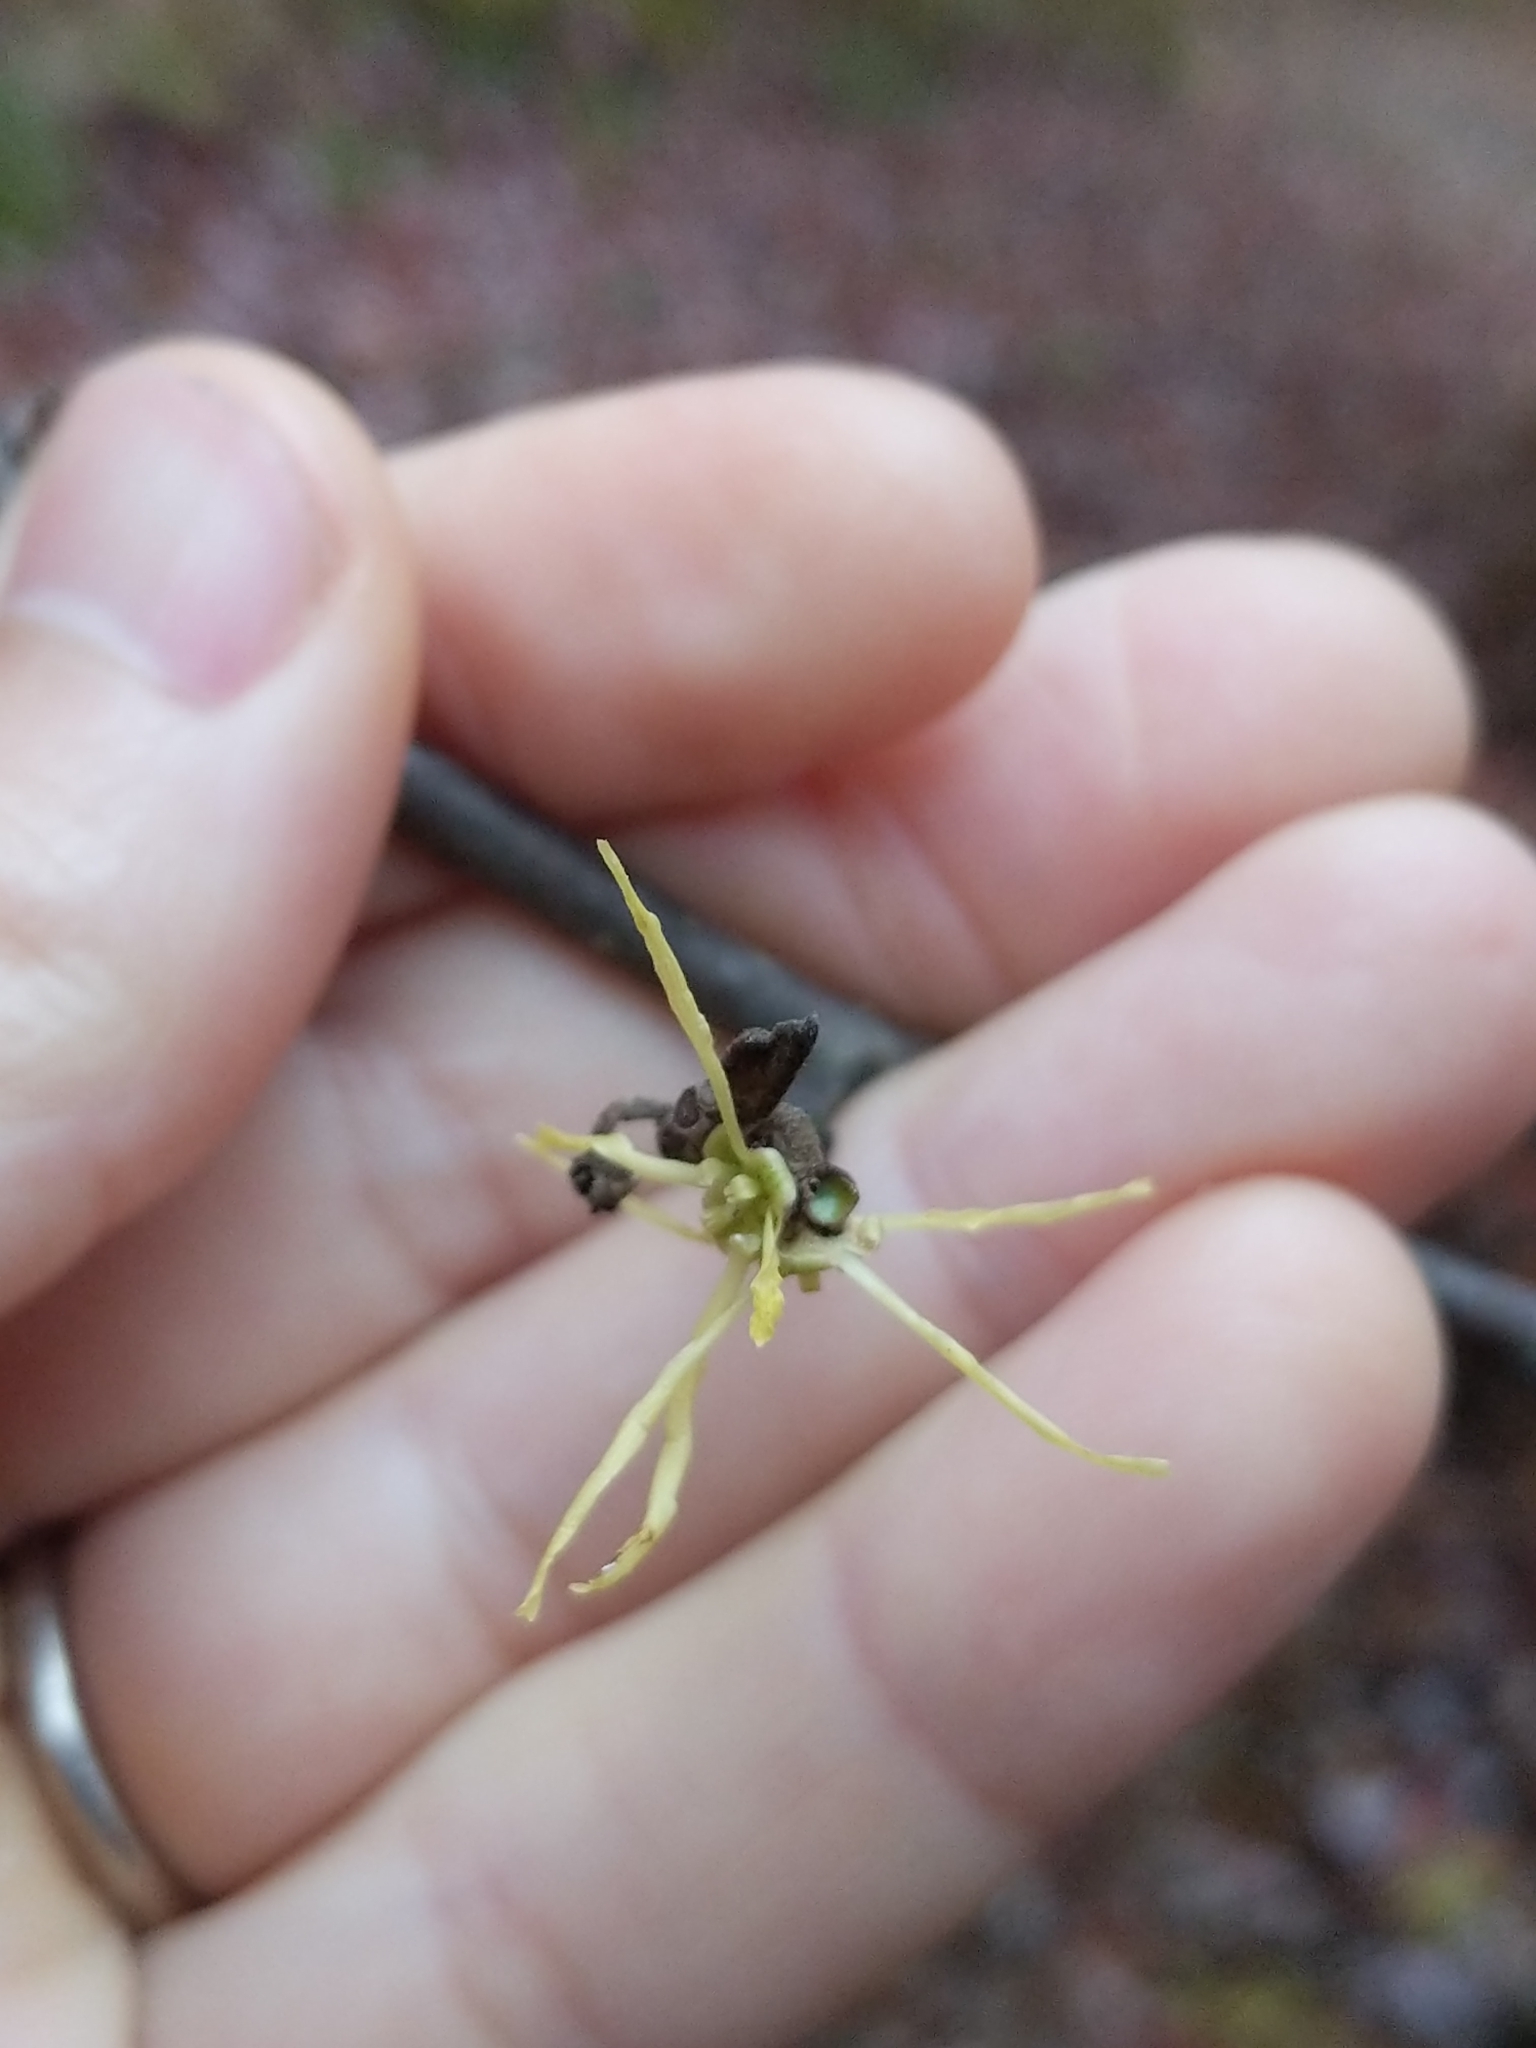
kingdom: Plantae
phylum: Tracheophyta
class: Magnoliopsida
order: Saxifragales
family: Hamamelidaceae
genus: Hamamelis
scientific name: Hamamelis virginiana
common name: Witch-hazel
